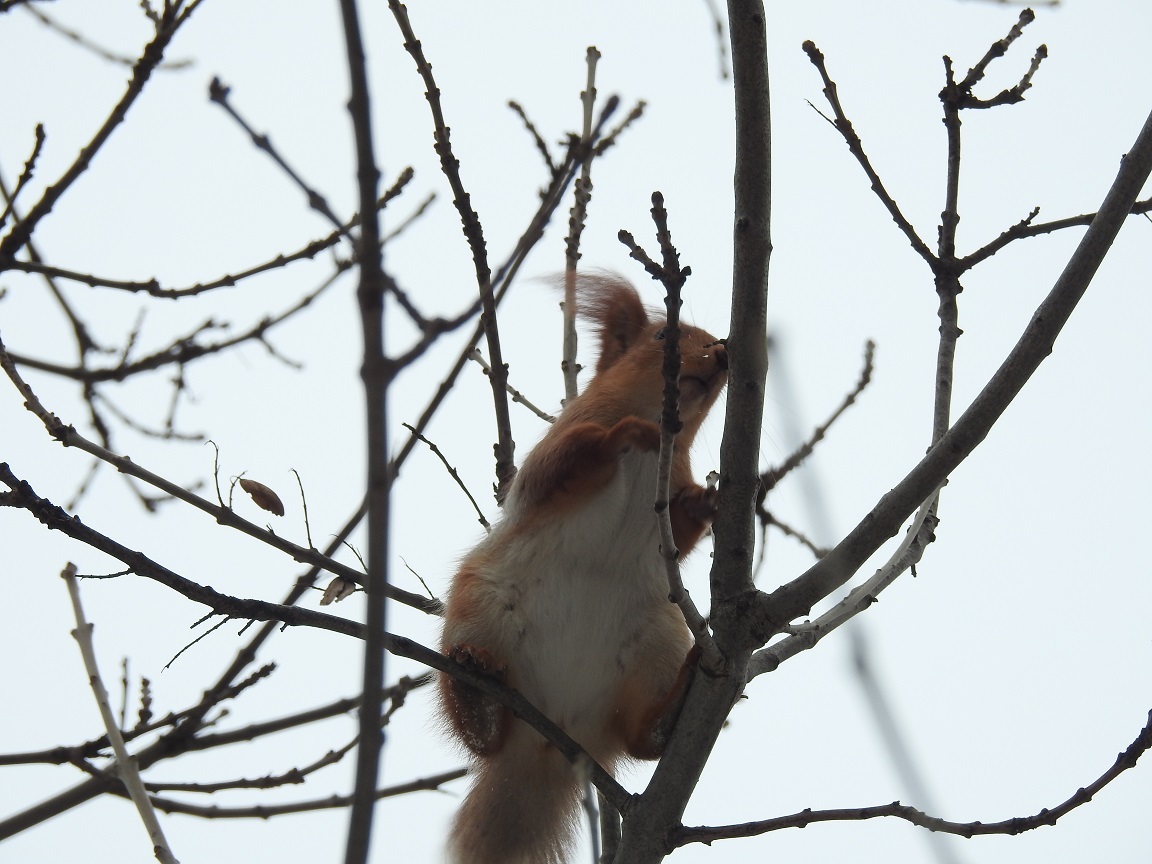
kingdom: Animalia
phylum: Chordata
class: Mammalia
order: Rodentia
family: Sciuridae
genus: Sciurus
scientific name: Sciurus vulgaris
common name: Eurasian red squirrel
